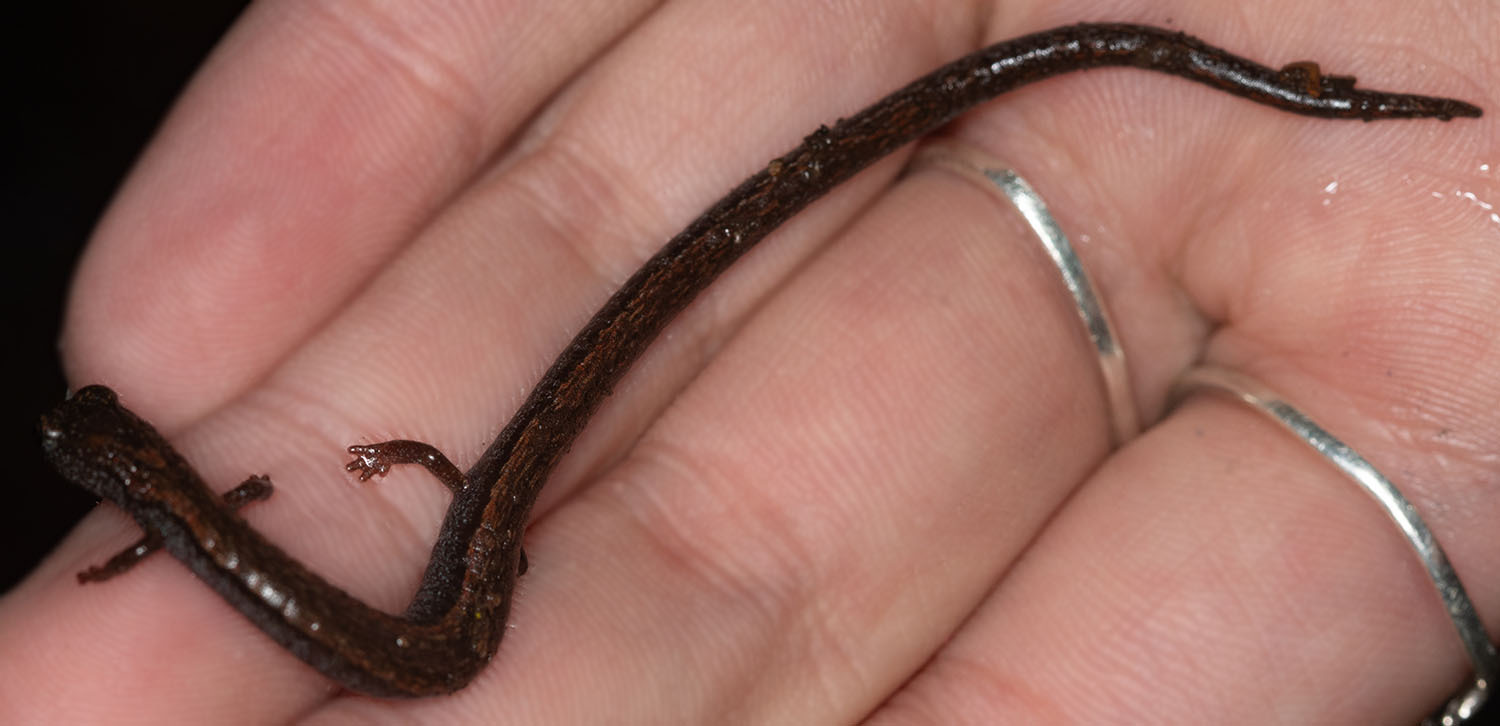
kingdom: Animalia
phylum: Chordata
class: Amphibia
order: Caudata
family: Plethodontidae
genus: Batrachoseps
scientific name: Batrachoseps gavilanensis
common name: Gabilan mountains slender salamander
